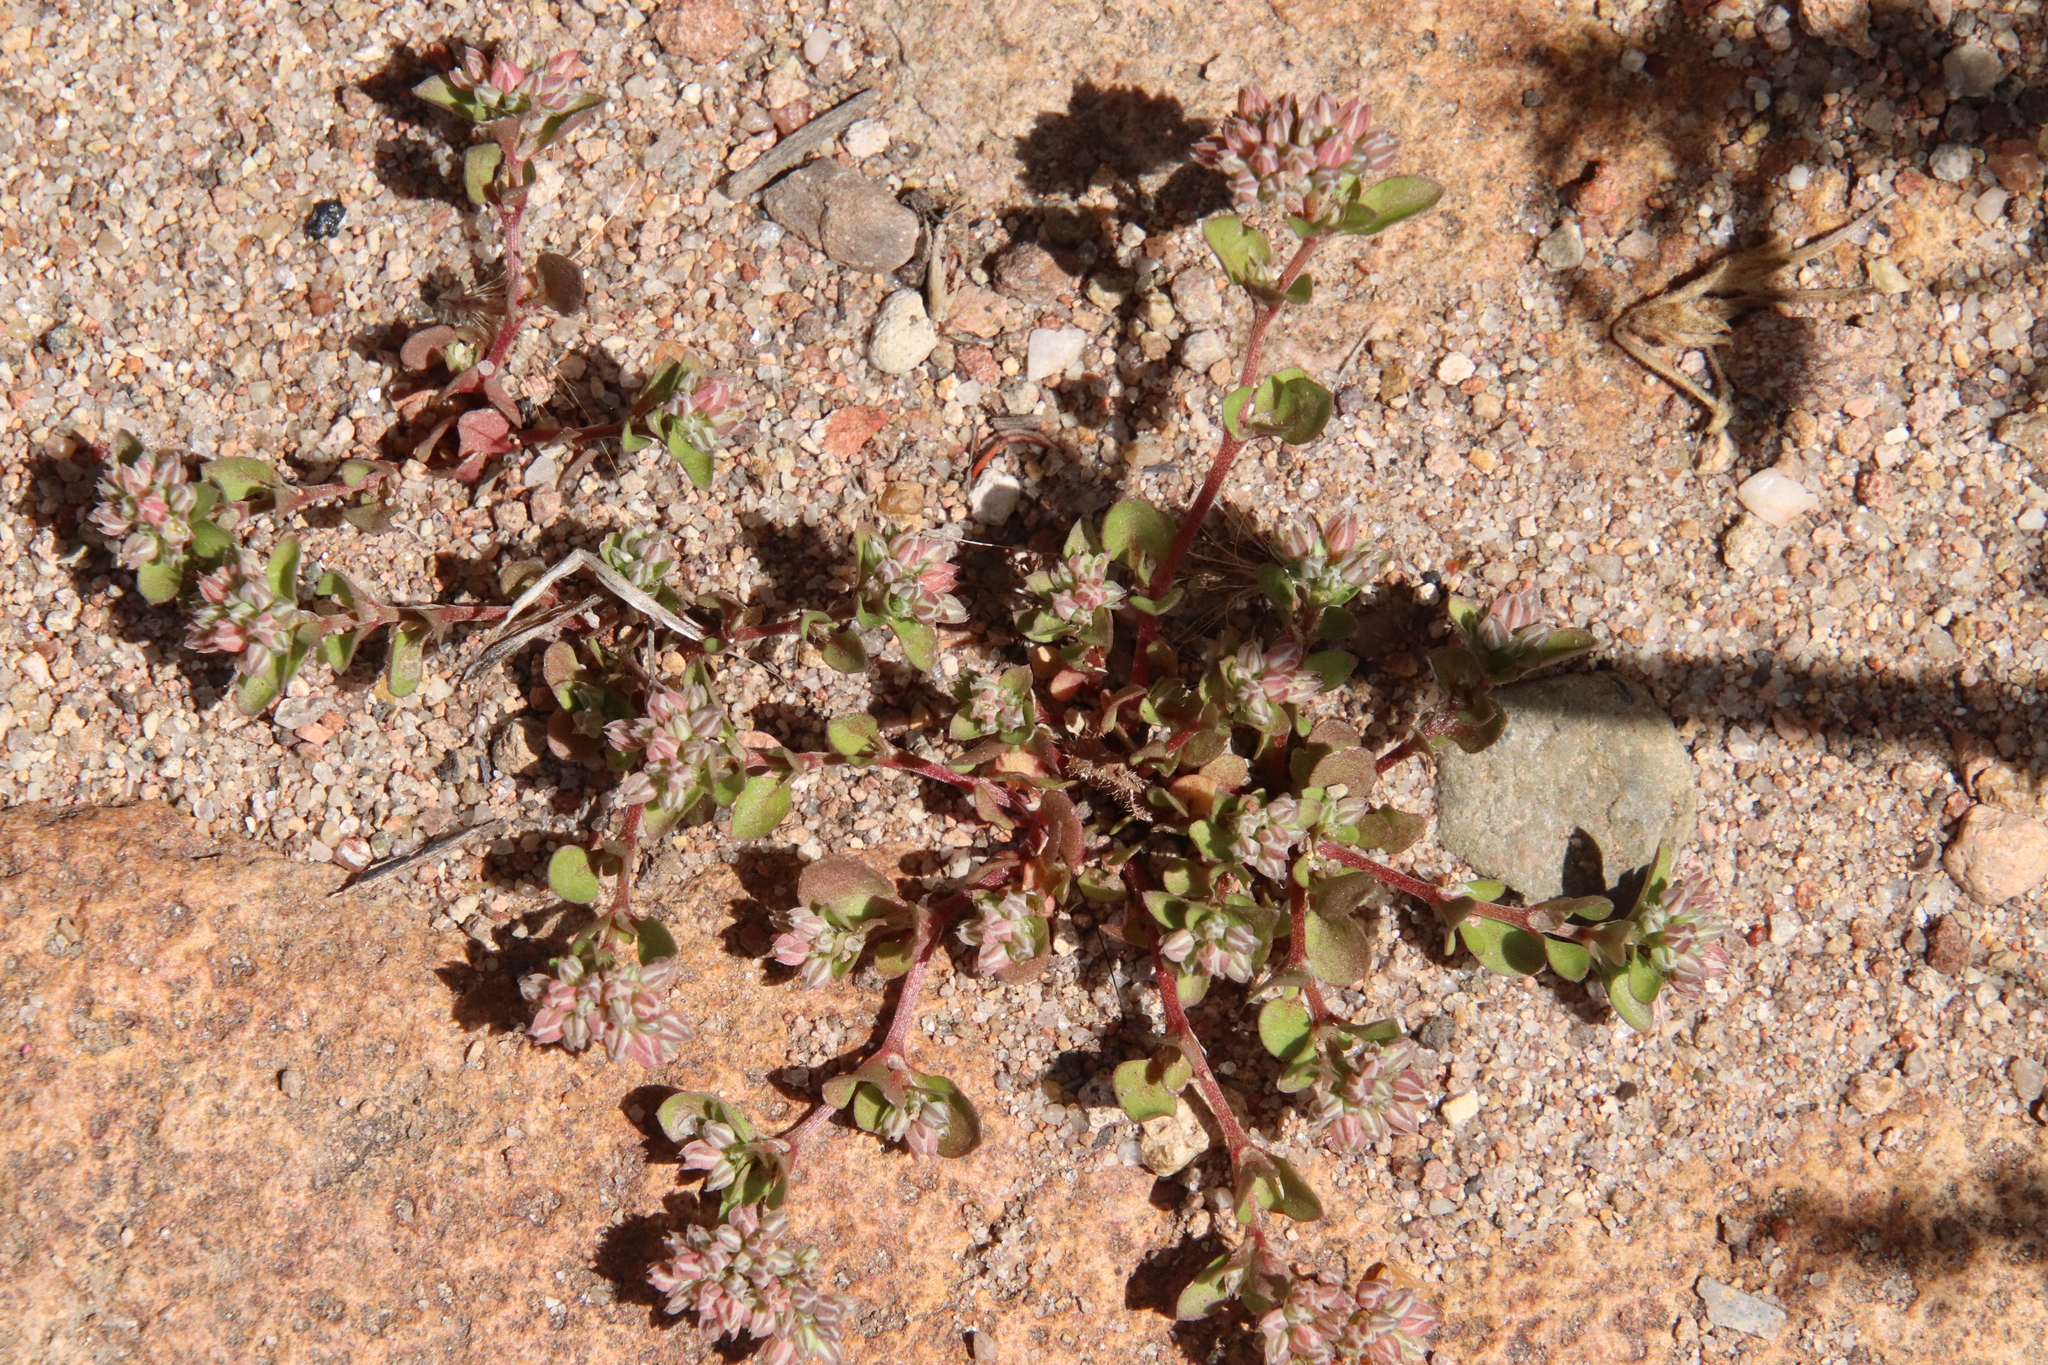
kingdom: Plantae
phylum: Tracheophyta
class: Magnoliopsida
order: Caryophyllales
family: Caryophyllaceae
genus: Polycarpon
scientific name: Polycarpon tetraphyllum
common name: Four-leaved all-seed
